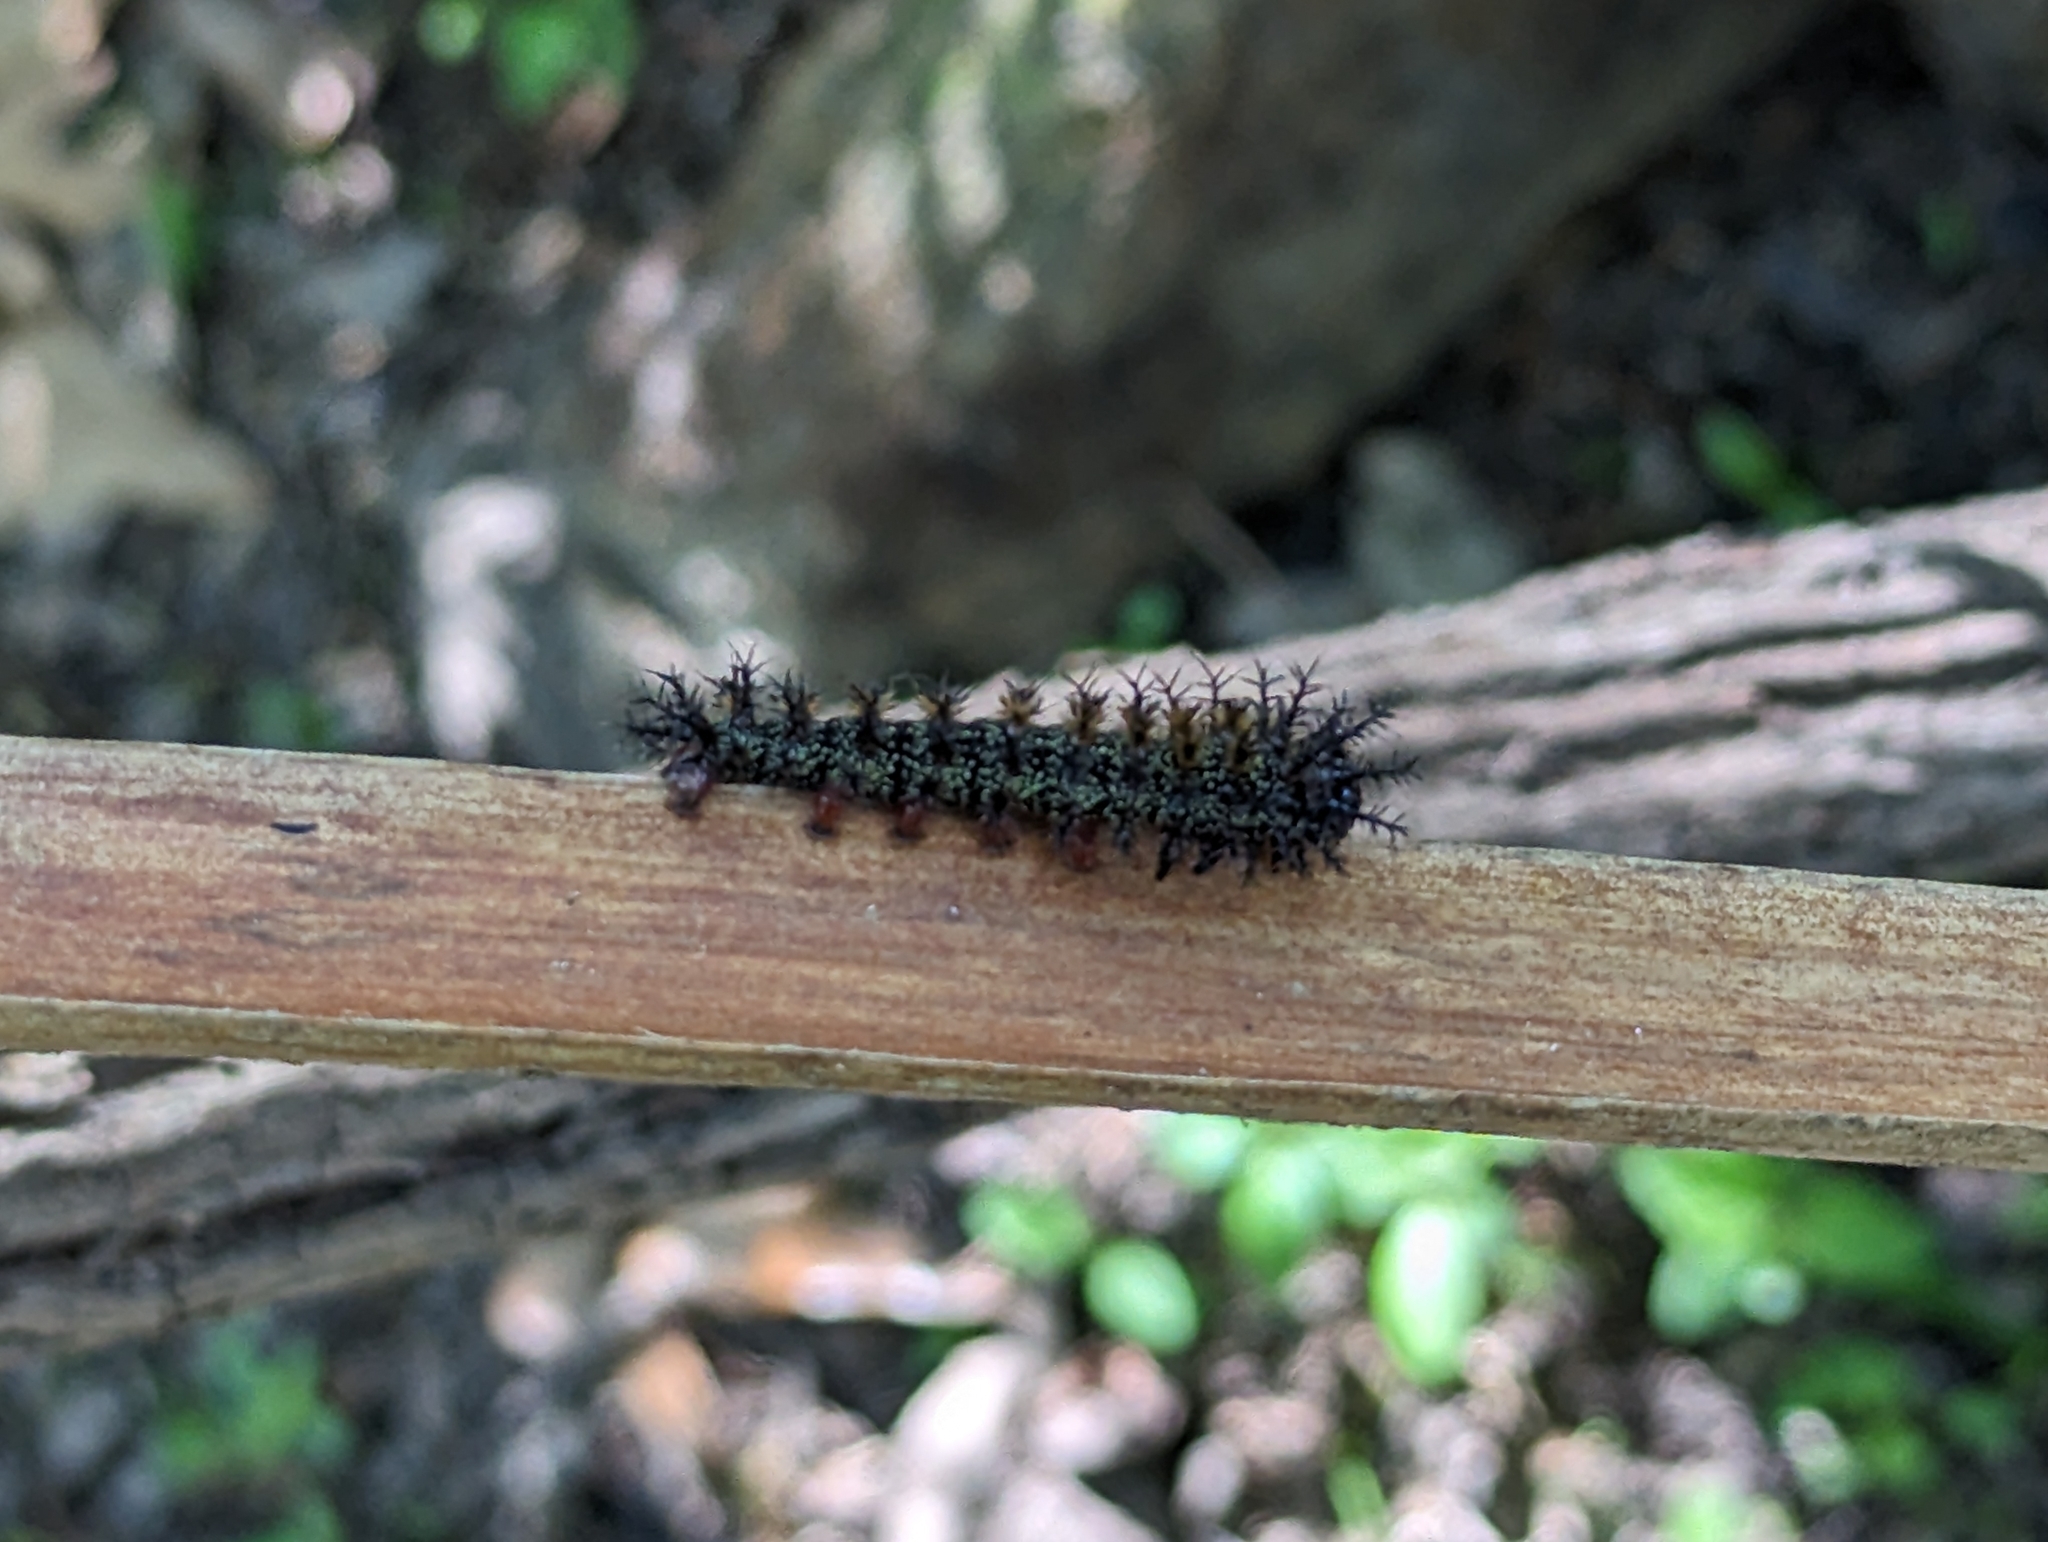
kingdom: Animalia
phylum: Arthropoda
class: Insecta
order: Lepidoptera
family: Saturniidae
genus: Hemileuca
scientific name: Hemileuca maia
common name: Eastern buckmoth
